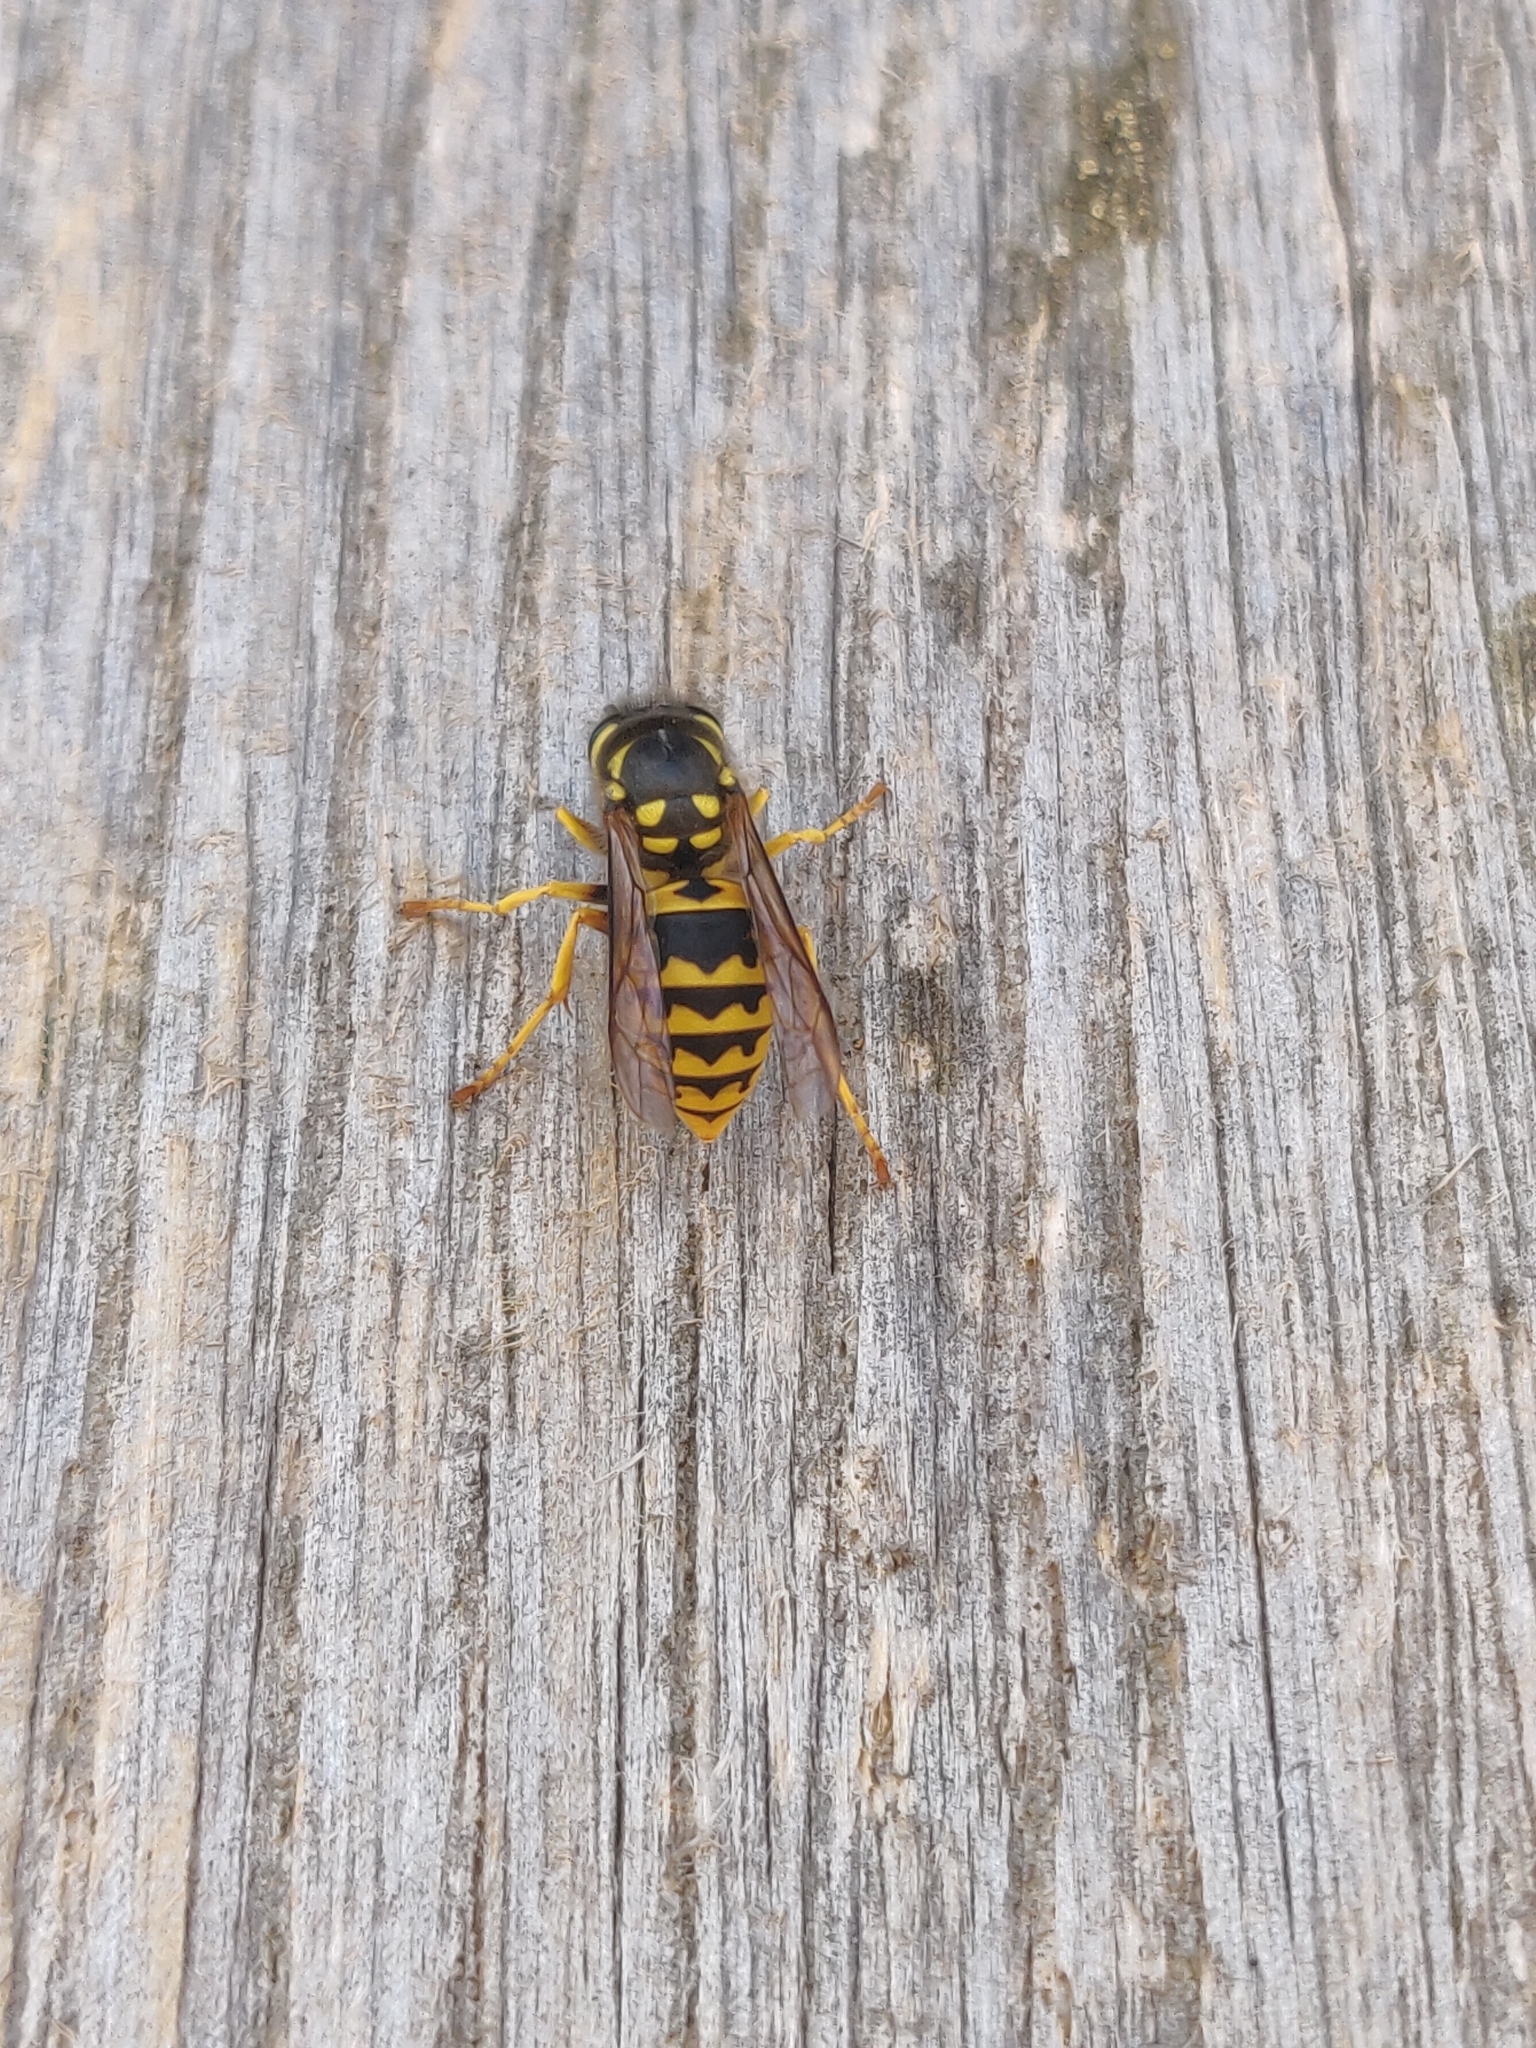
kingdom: Animalia
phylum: Arthropoda
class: Insecta
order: Hymenoptera
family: Vespidae
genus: Vespula
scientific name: Vespula germanica
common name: German wasp
